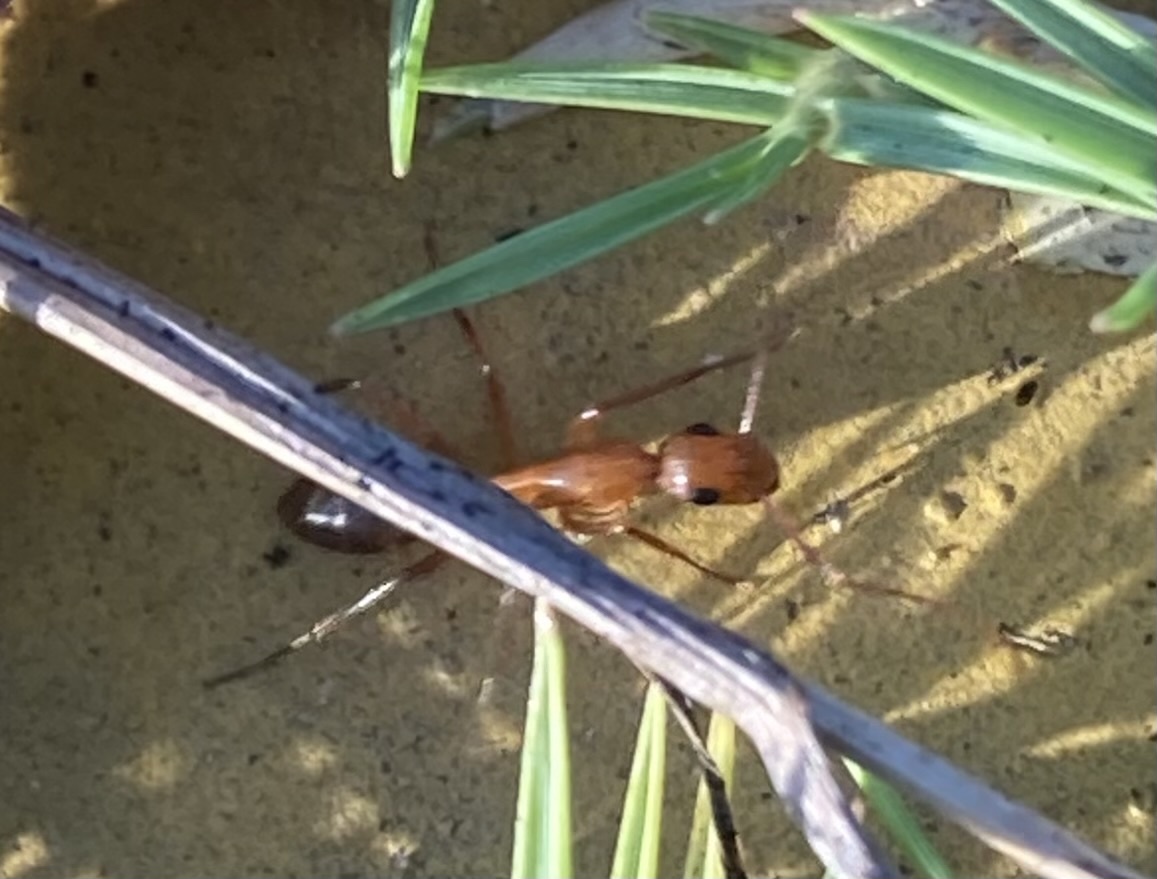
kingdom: Animalia
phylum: Arthropoda
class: Insecta
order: Hymenoptera
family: Formicidae
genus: Camponotus
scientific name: Camponotus inaequalis
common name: Ant
